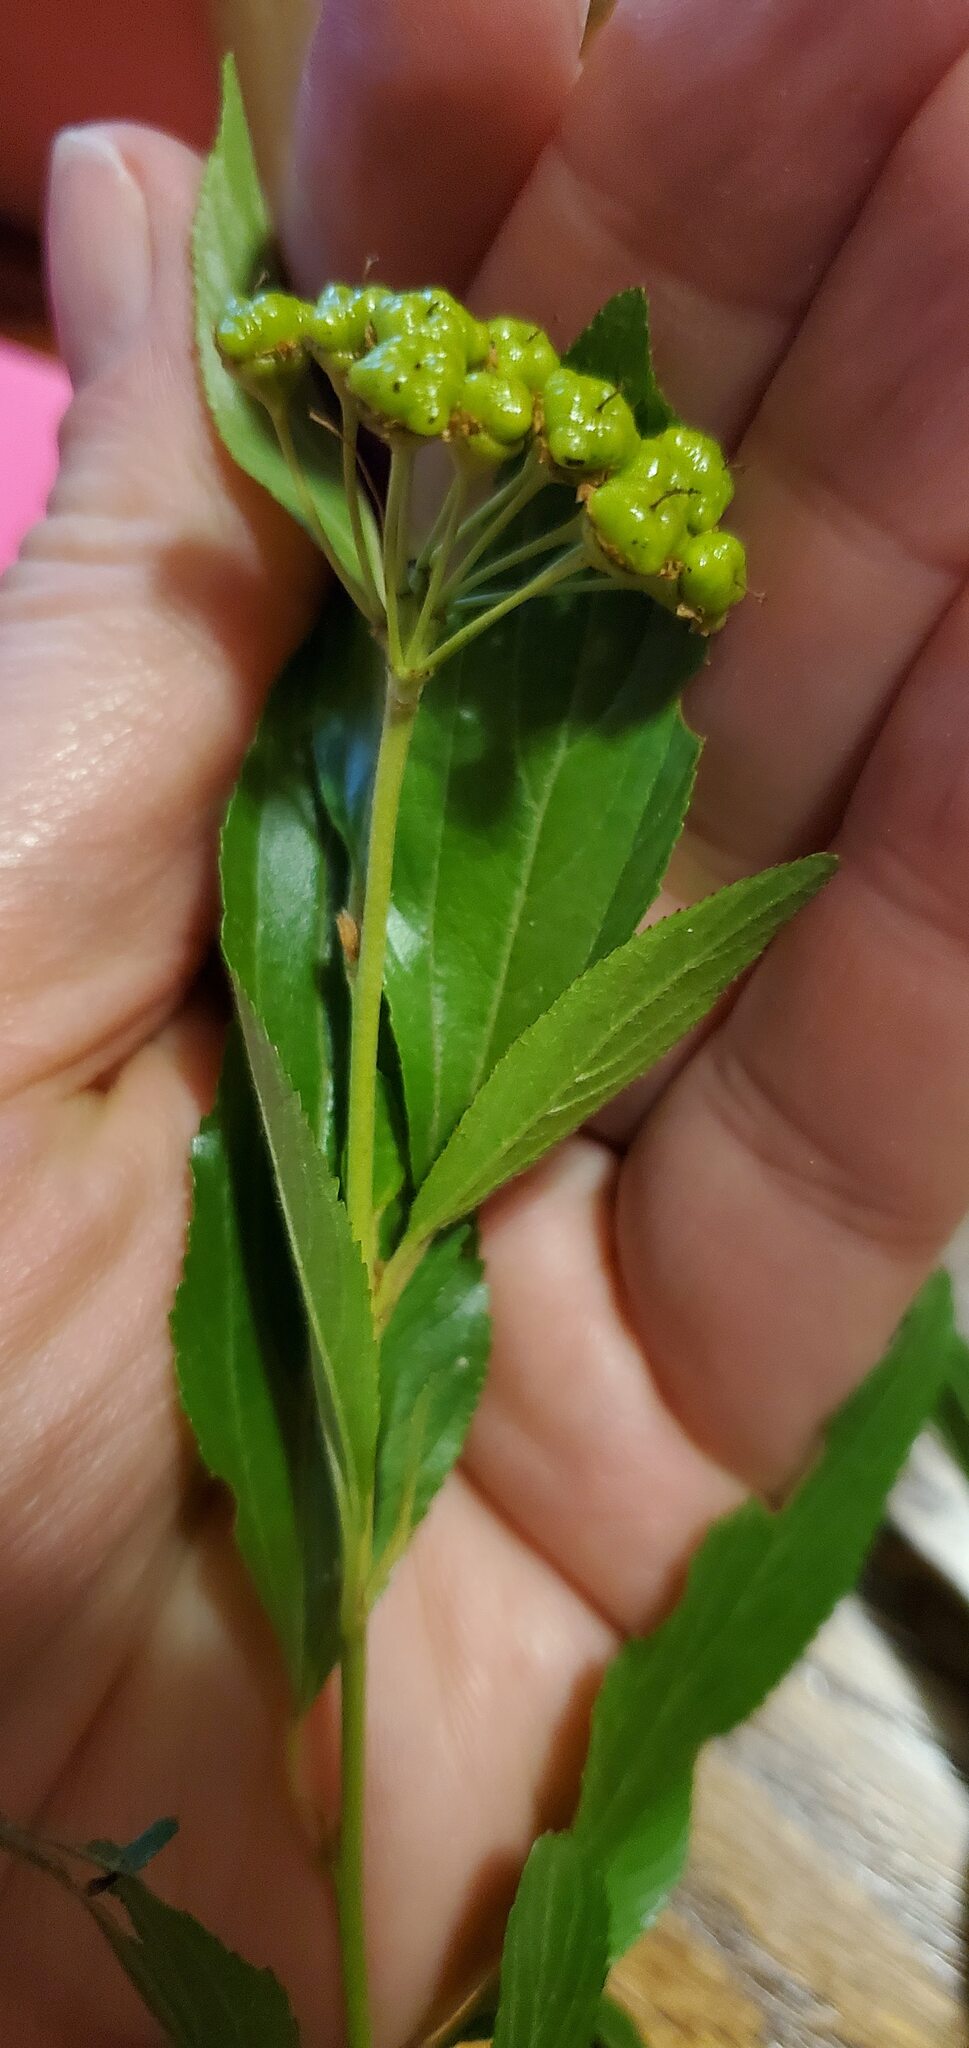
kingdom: Plantae
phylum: Tracheophyta
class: Magnoliopsida
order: Rosales
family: Rhamnaceae
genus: Ceanothus
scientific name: Ceanothus herbaceus
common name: Inland ceanothus
